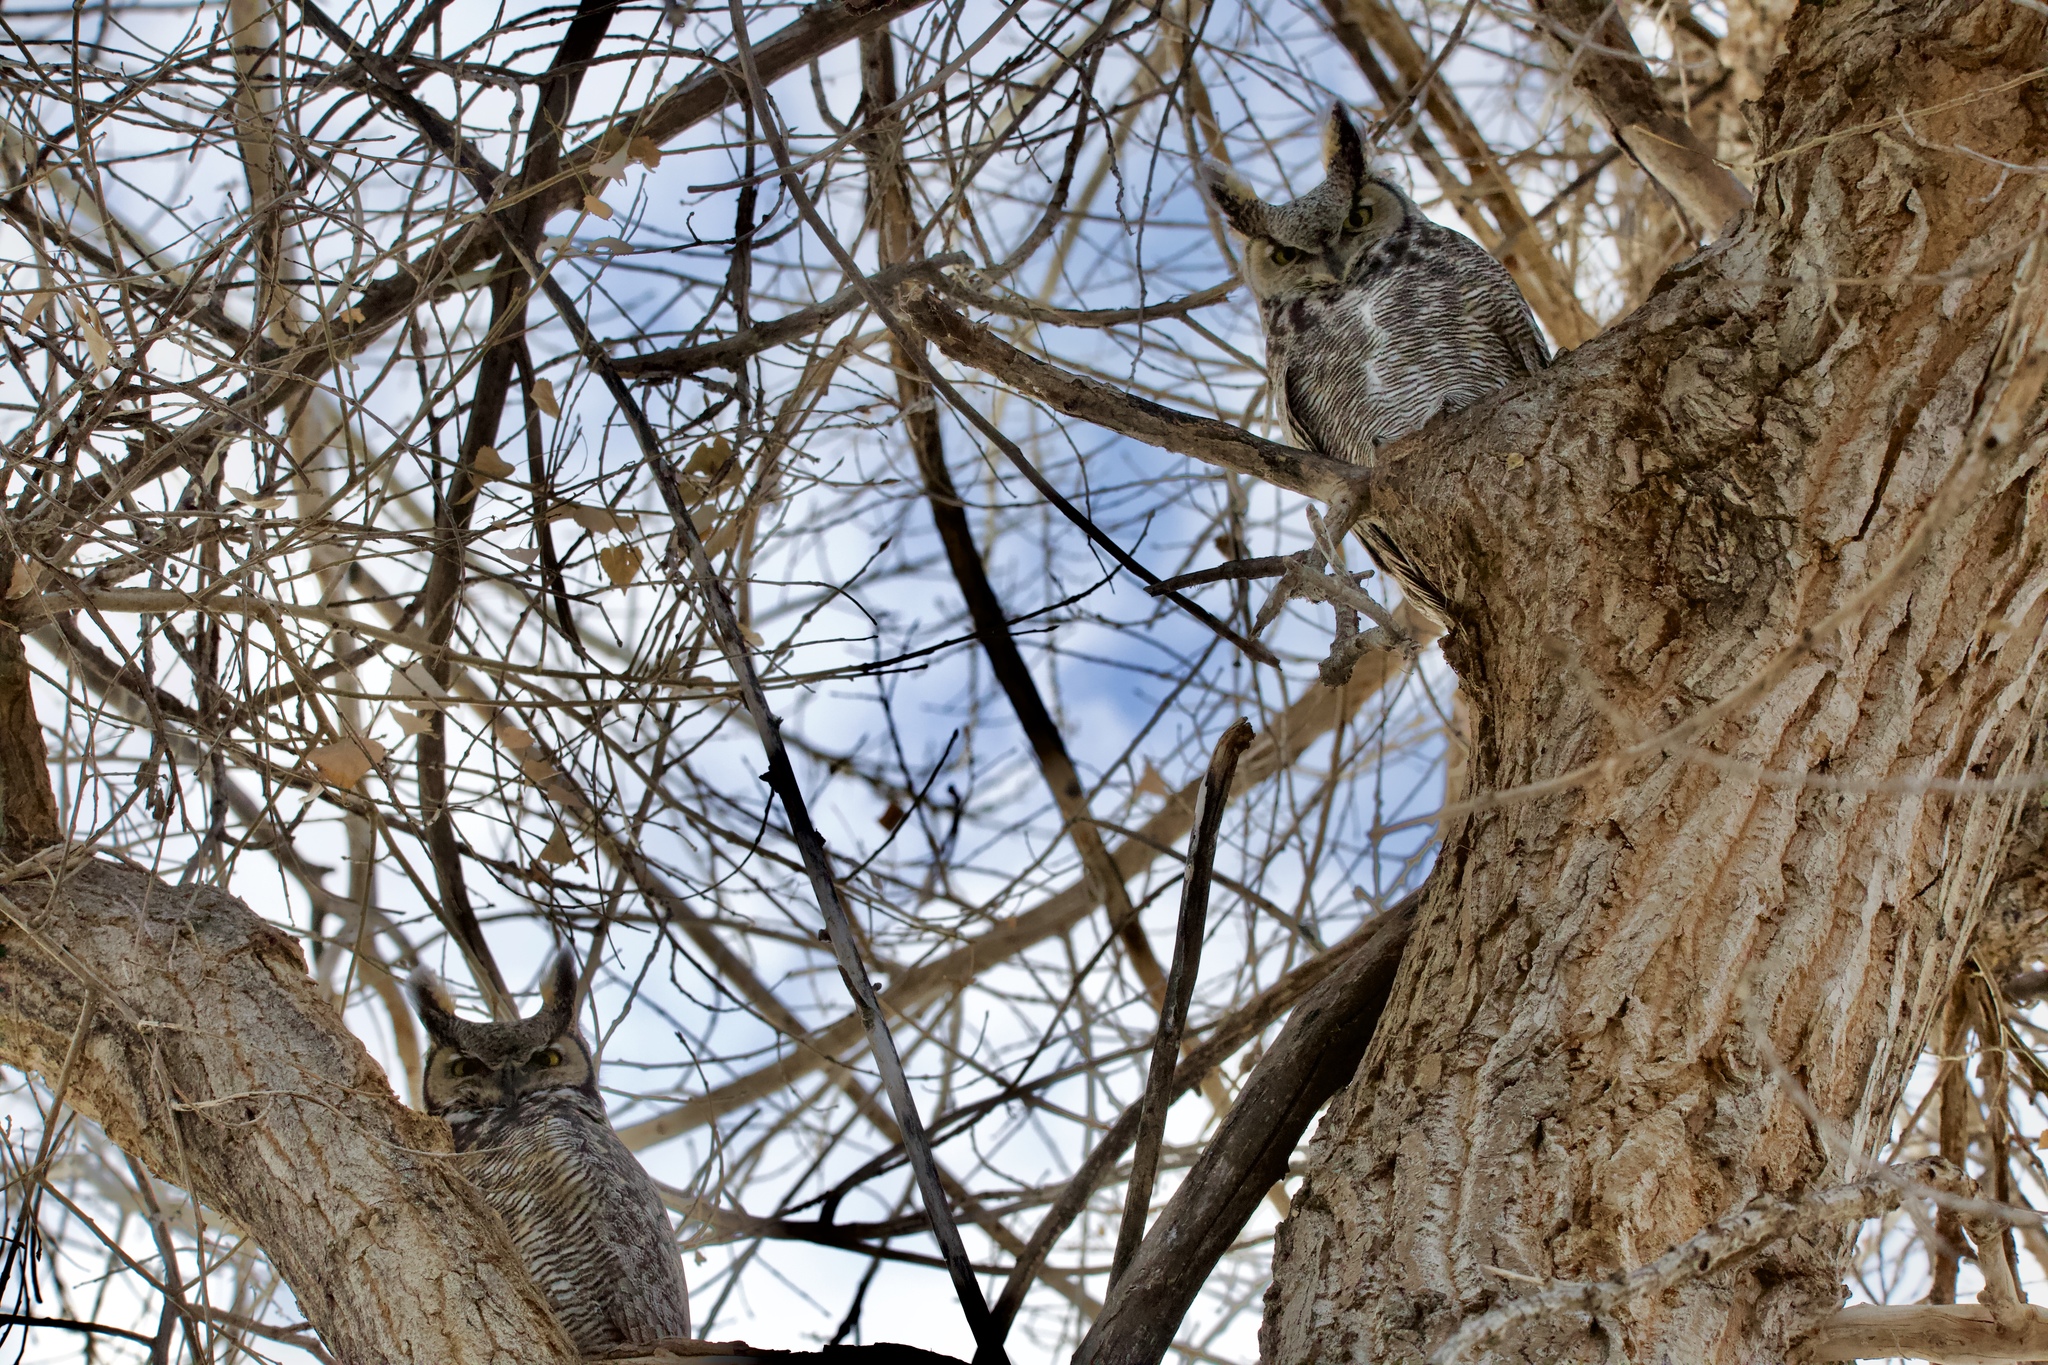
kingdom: Animalia
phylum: Chordata
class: Aves
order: Strigiformes
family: Strigidae
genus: Bubo
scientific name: Bubo virginianus
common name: Great horned owl
